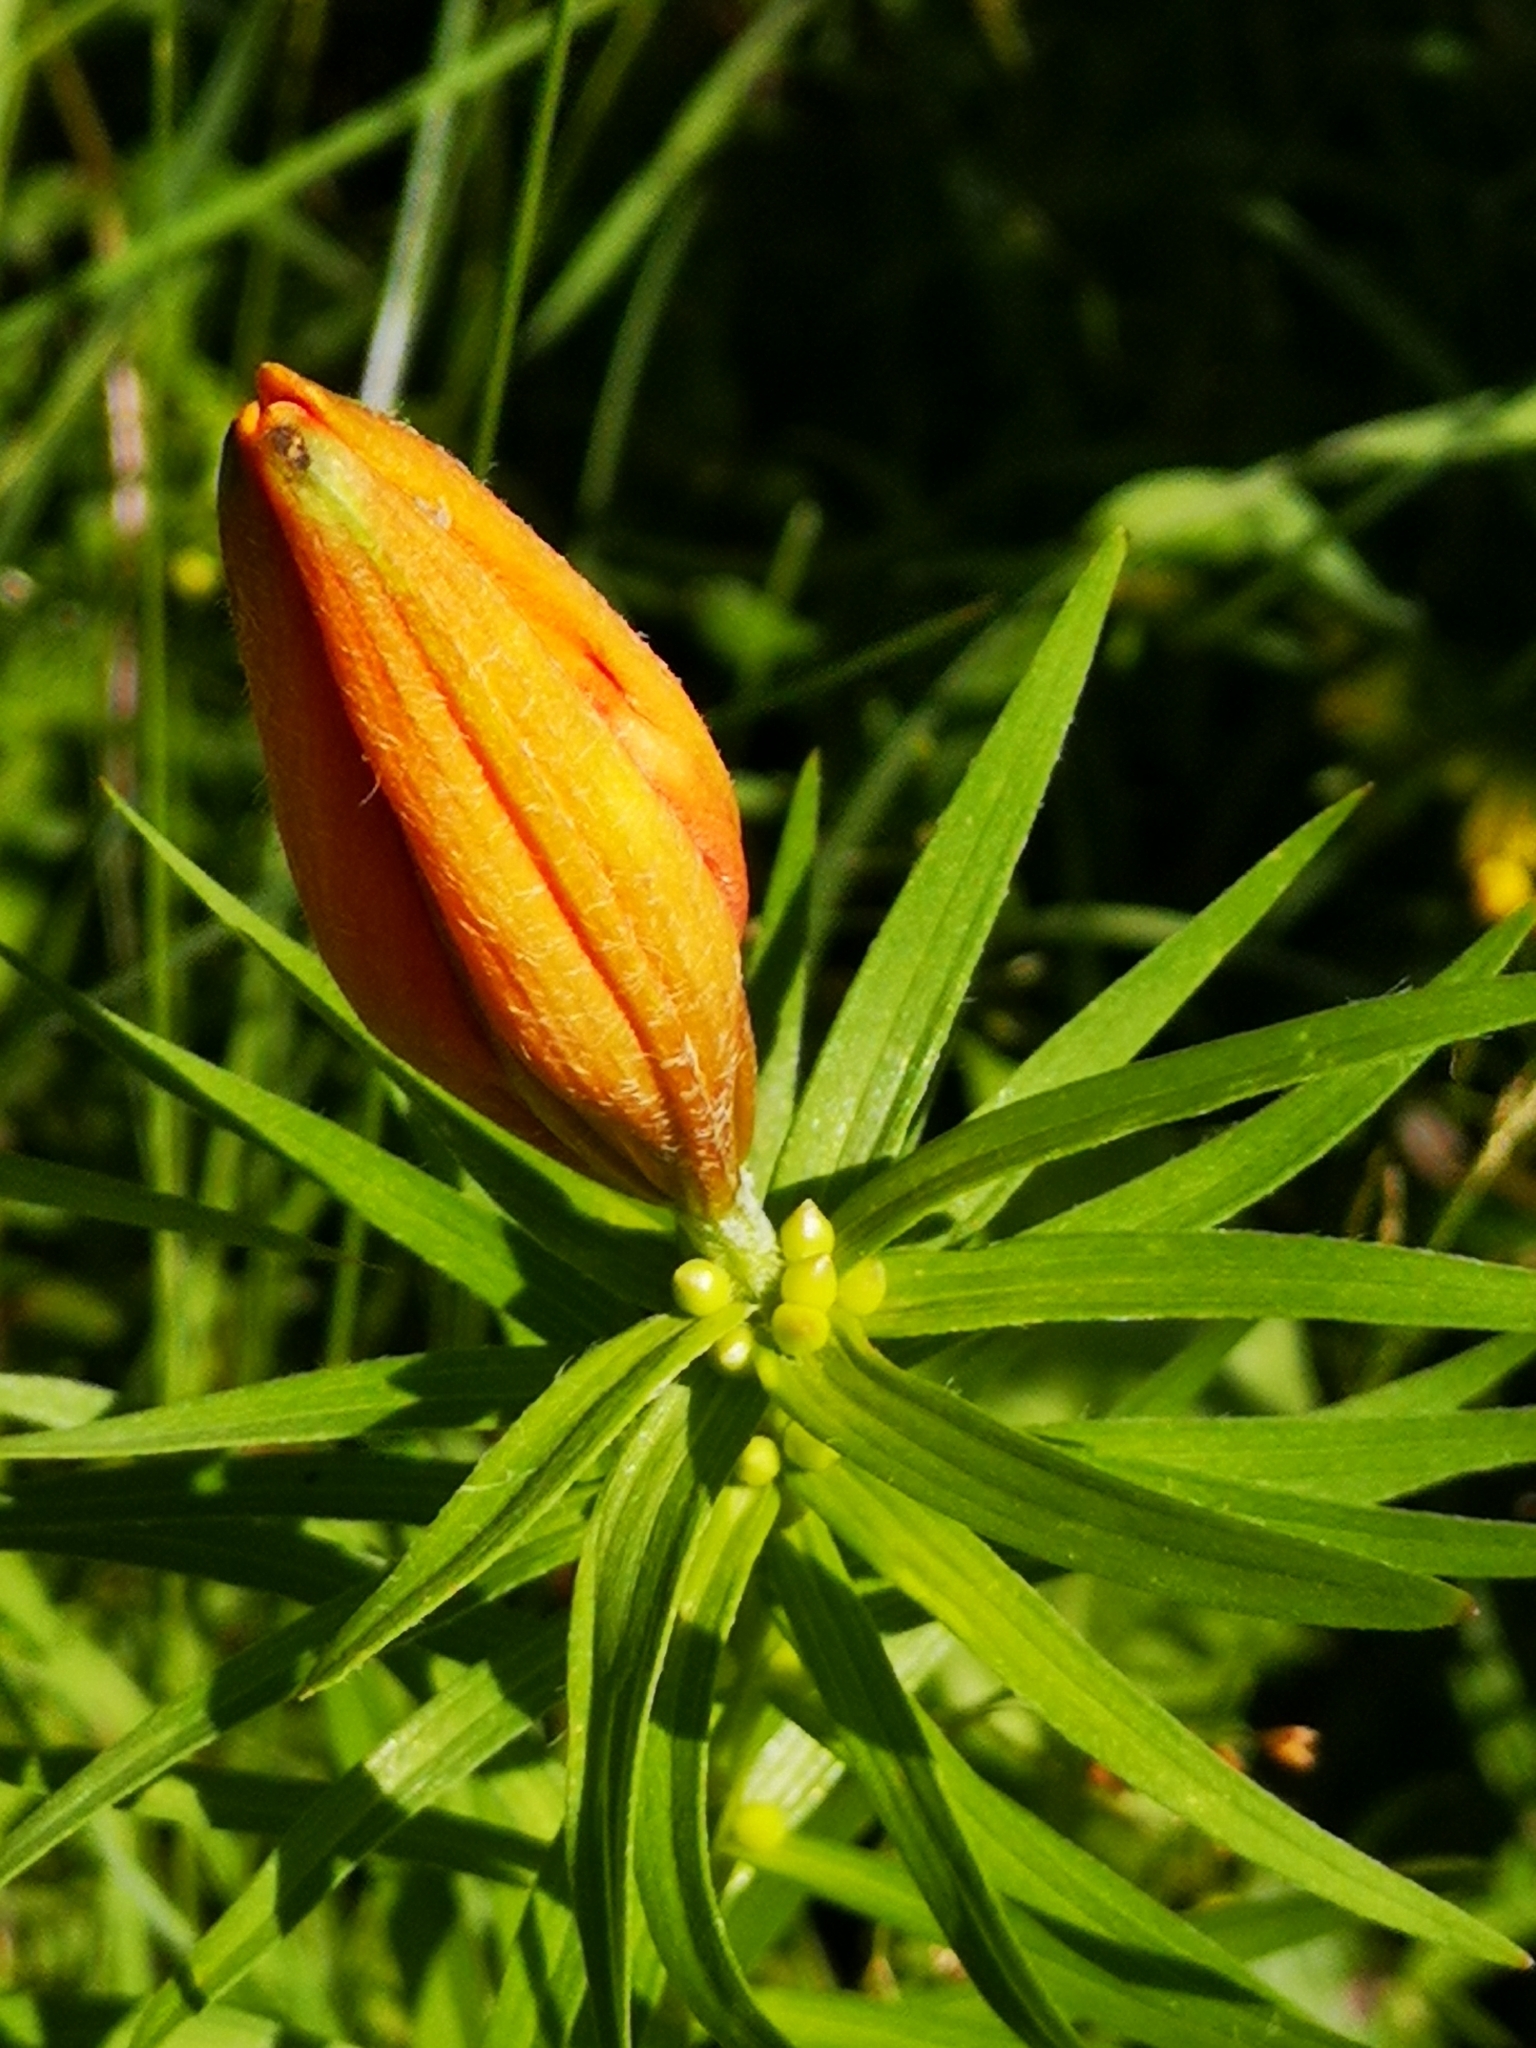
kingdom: Plantae
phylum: Tracheophyta
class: Liliopsida
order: Liliales
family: Liliaceae
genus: Lilium
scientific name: Lilium bulbiferum
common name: Orange lily
